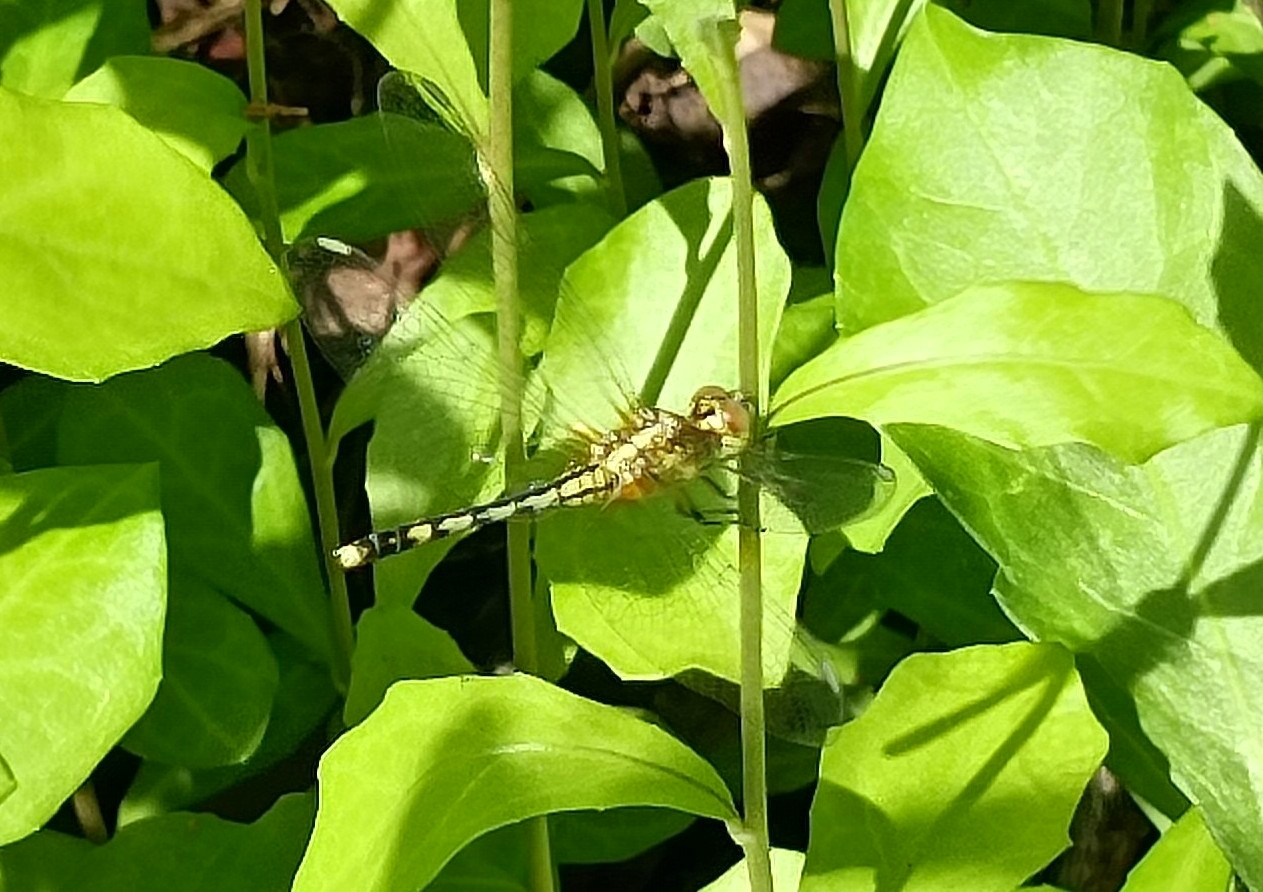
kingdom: Animalia
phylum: Arthropoda
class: Insecta
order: Odonata
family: Libellulidae
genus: Diplacodes
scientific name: Diplacodes trivialis
